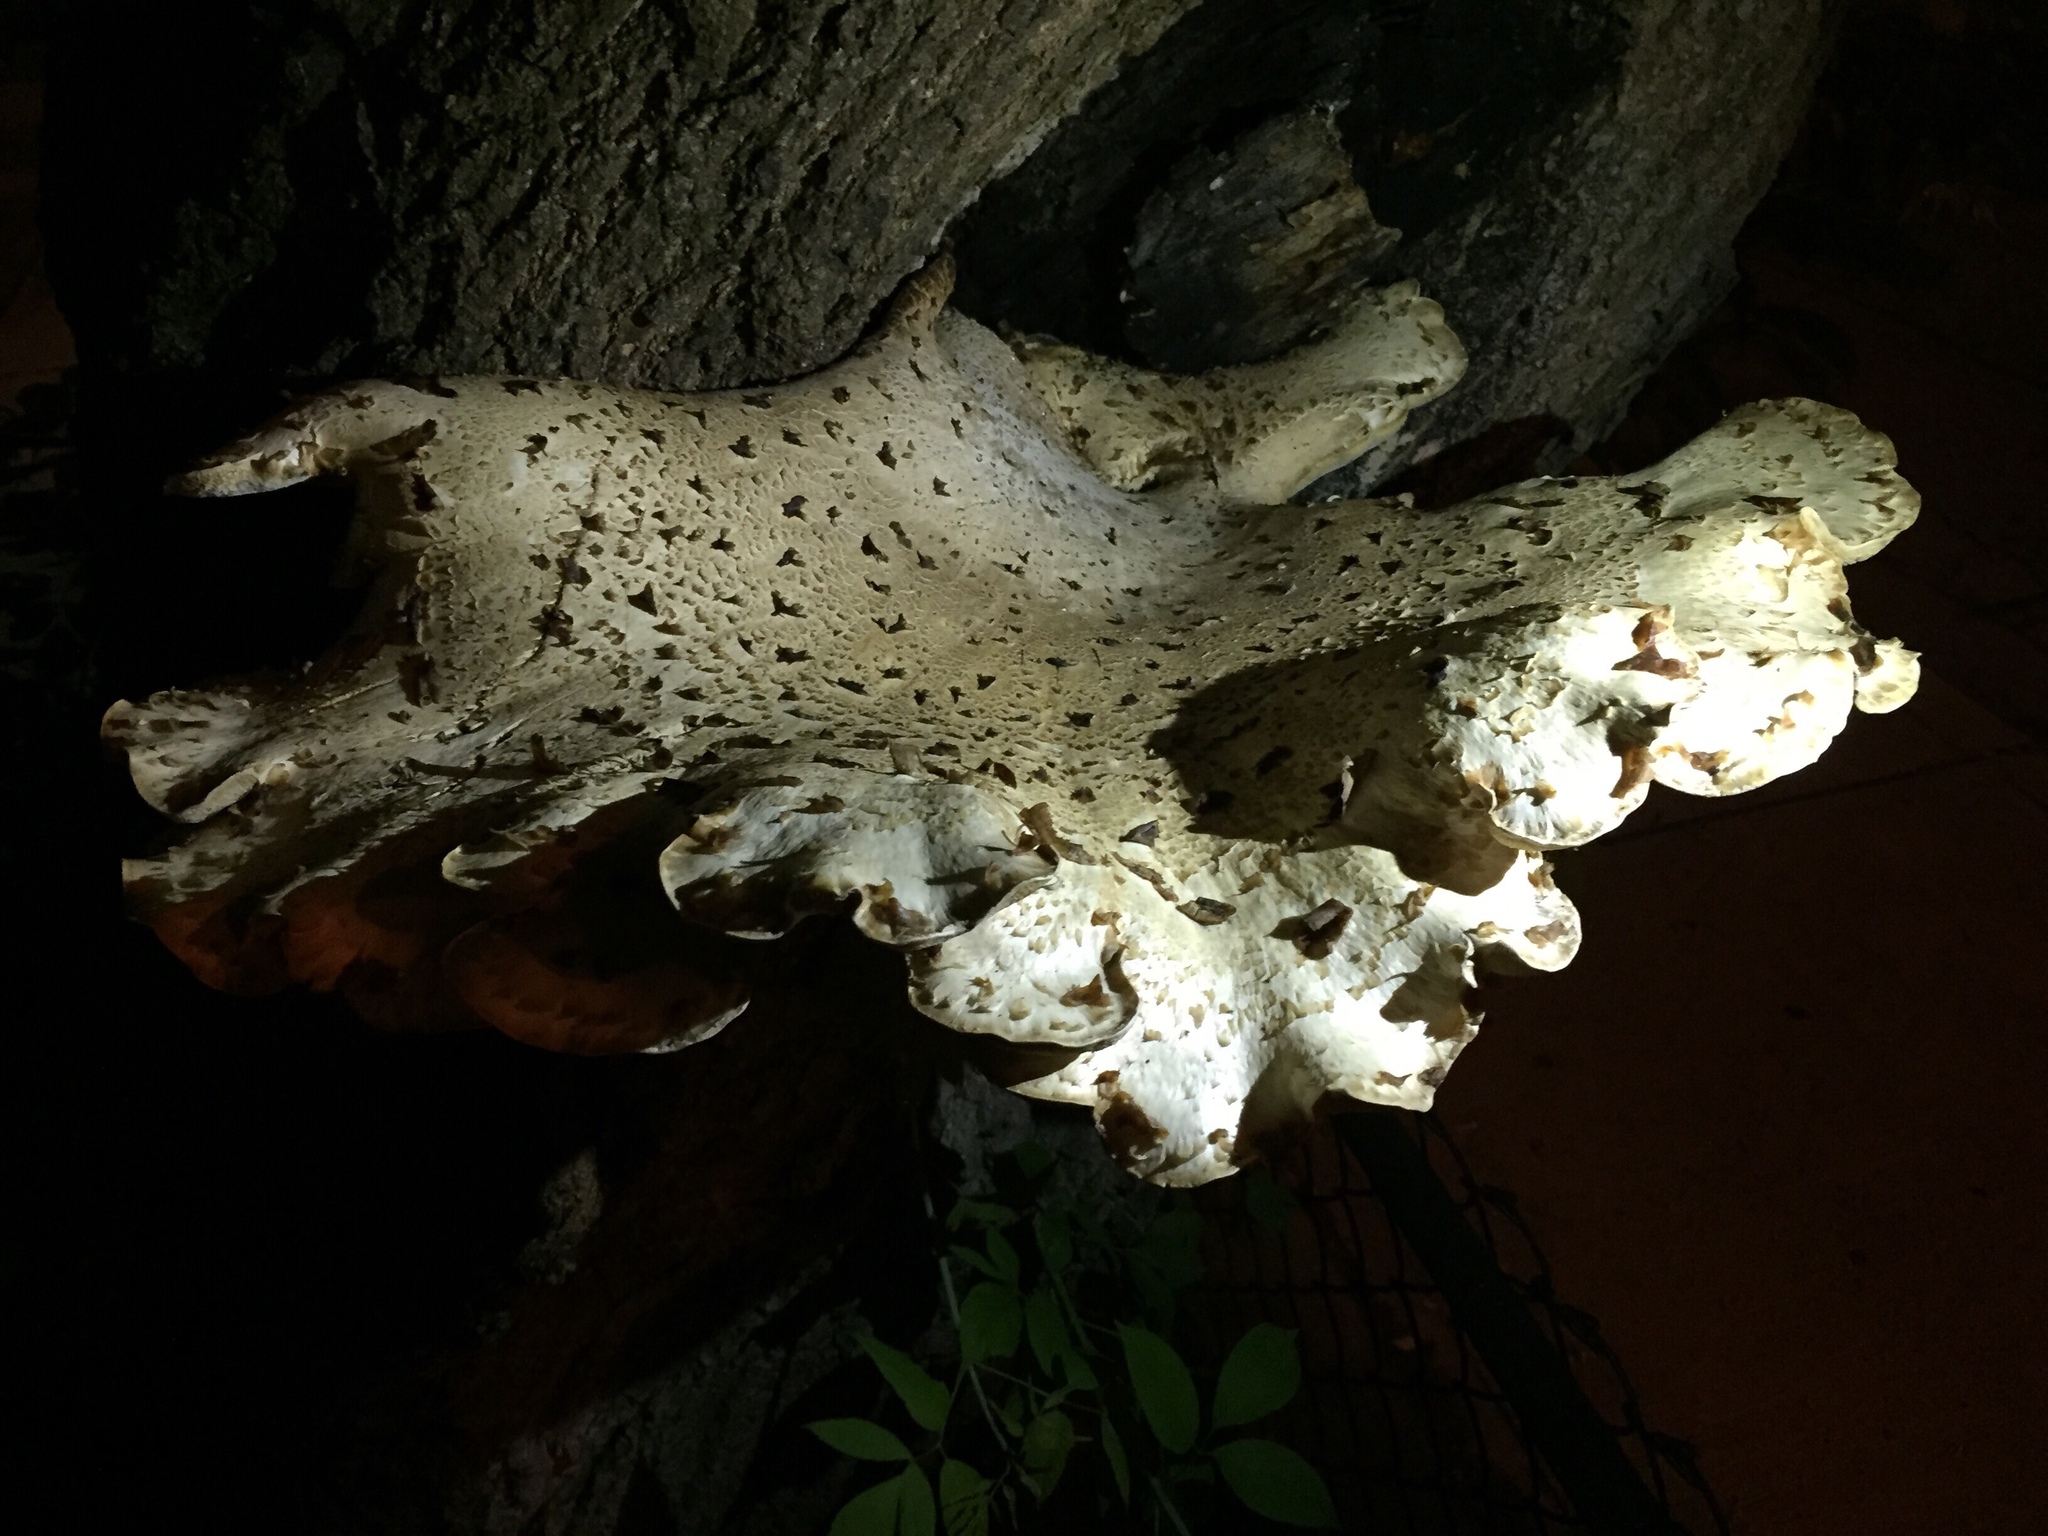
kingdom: Fungi
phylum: Basidiomycota
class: Agaricomycetes
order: Polyporales
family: Polyporaceae
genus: Cerioporus
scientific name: Cerioporus squamosus
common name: Dryad's saddle
